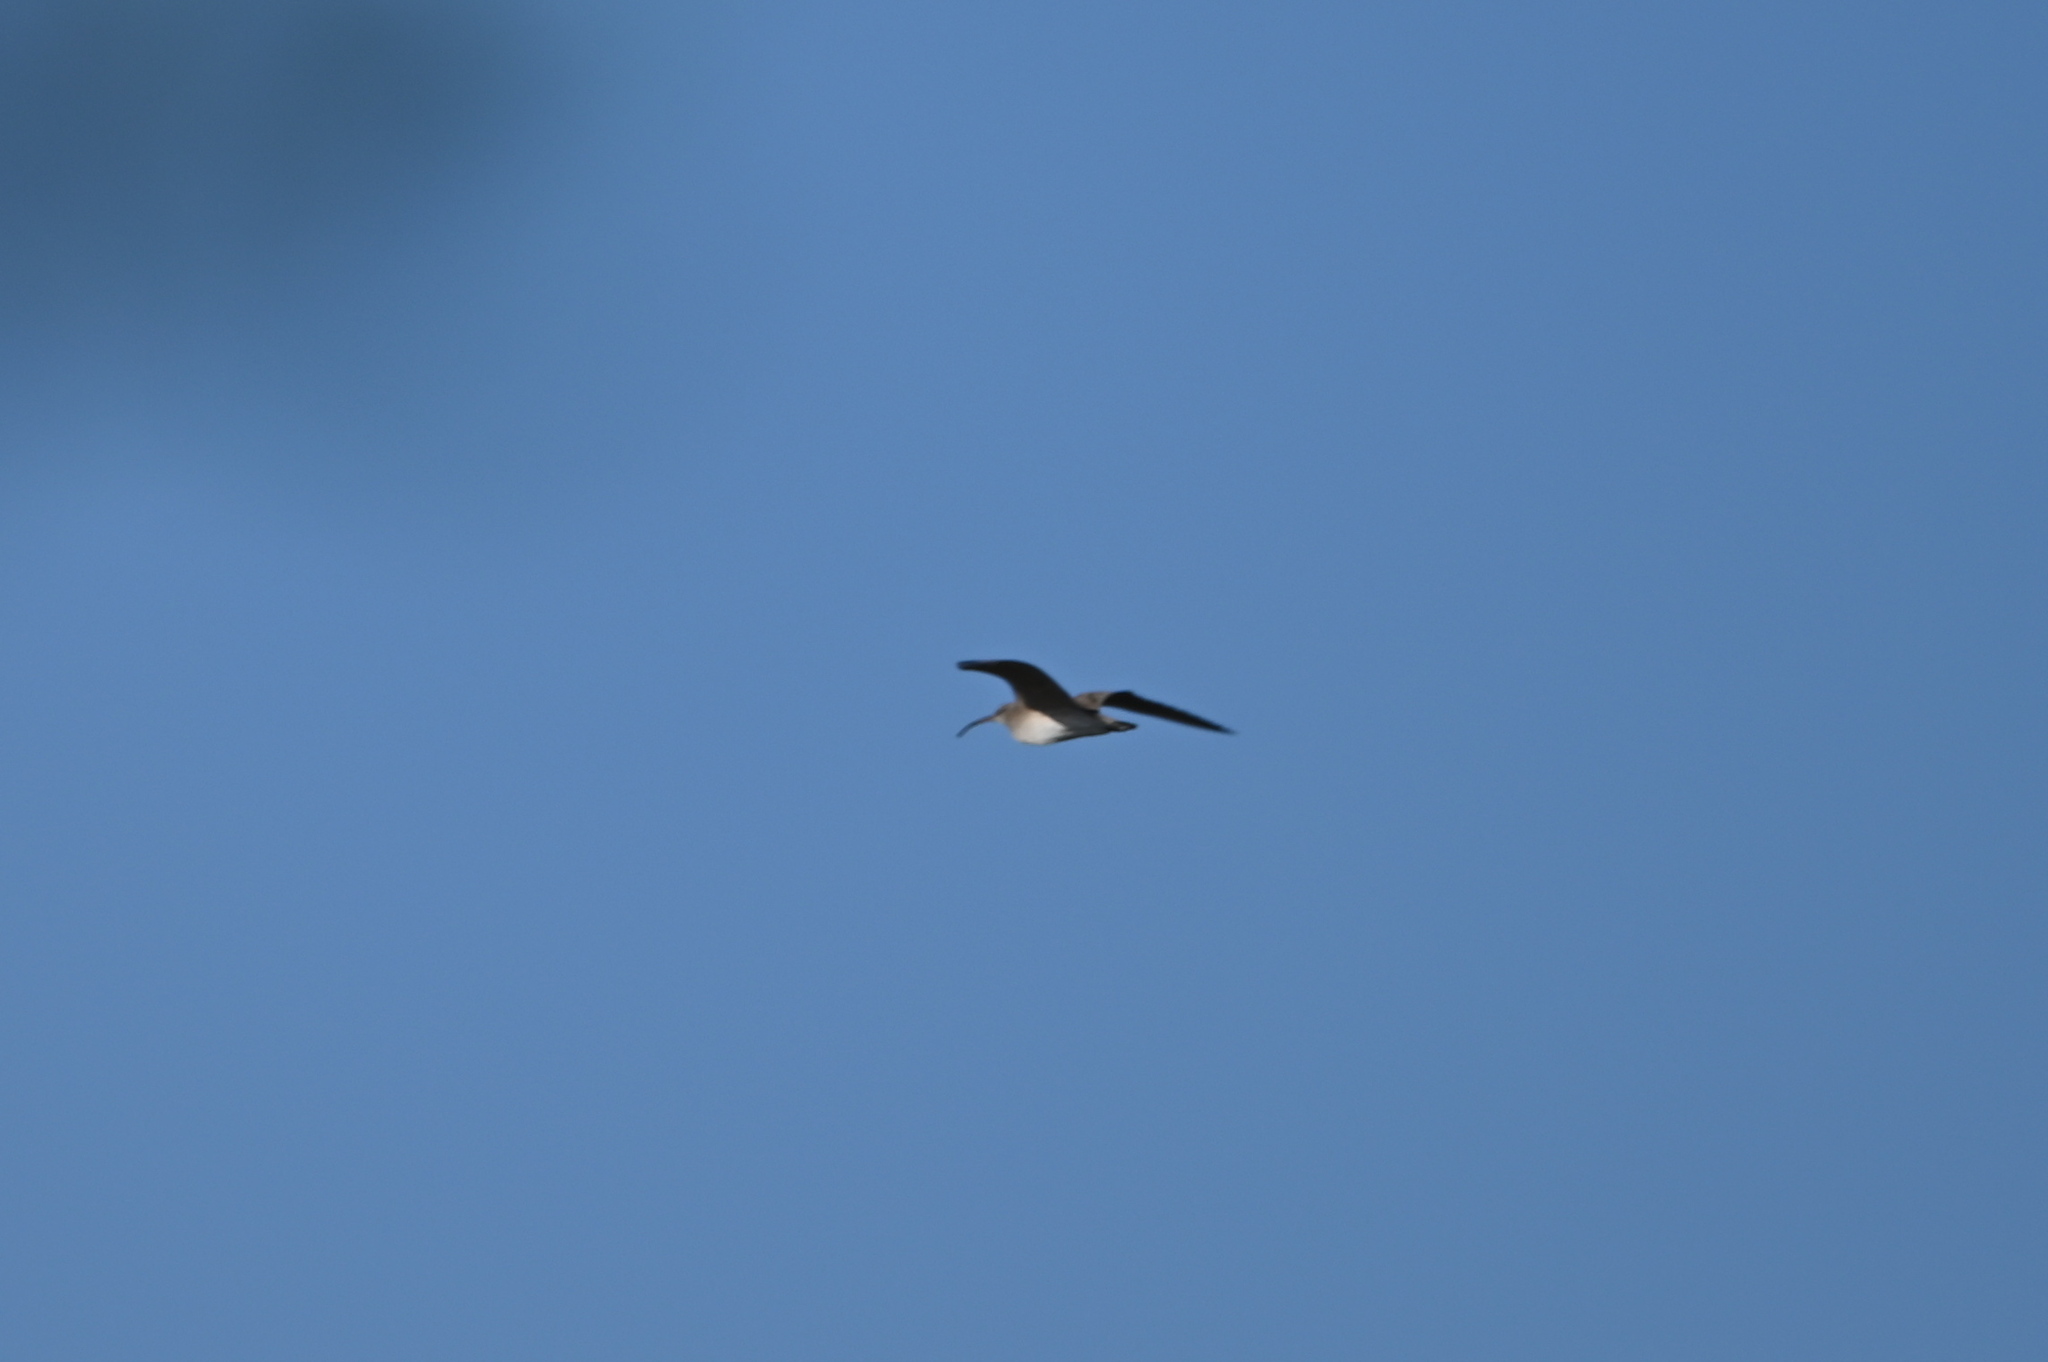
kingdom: Animalia
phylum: Chordata
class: Aves
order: Charadriiformes
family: Scolopacidae
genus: Numenius
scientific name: Numenius phaeopus
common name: Whimbrel
